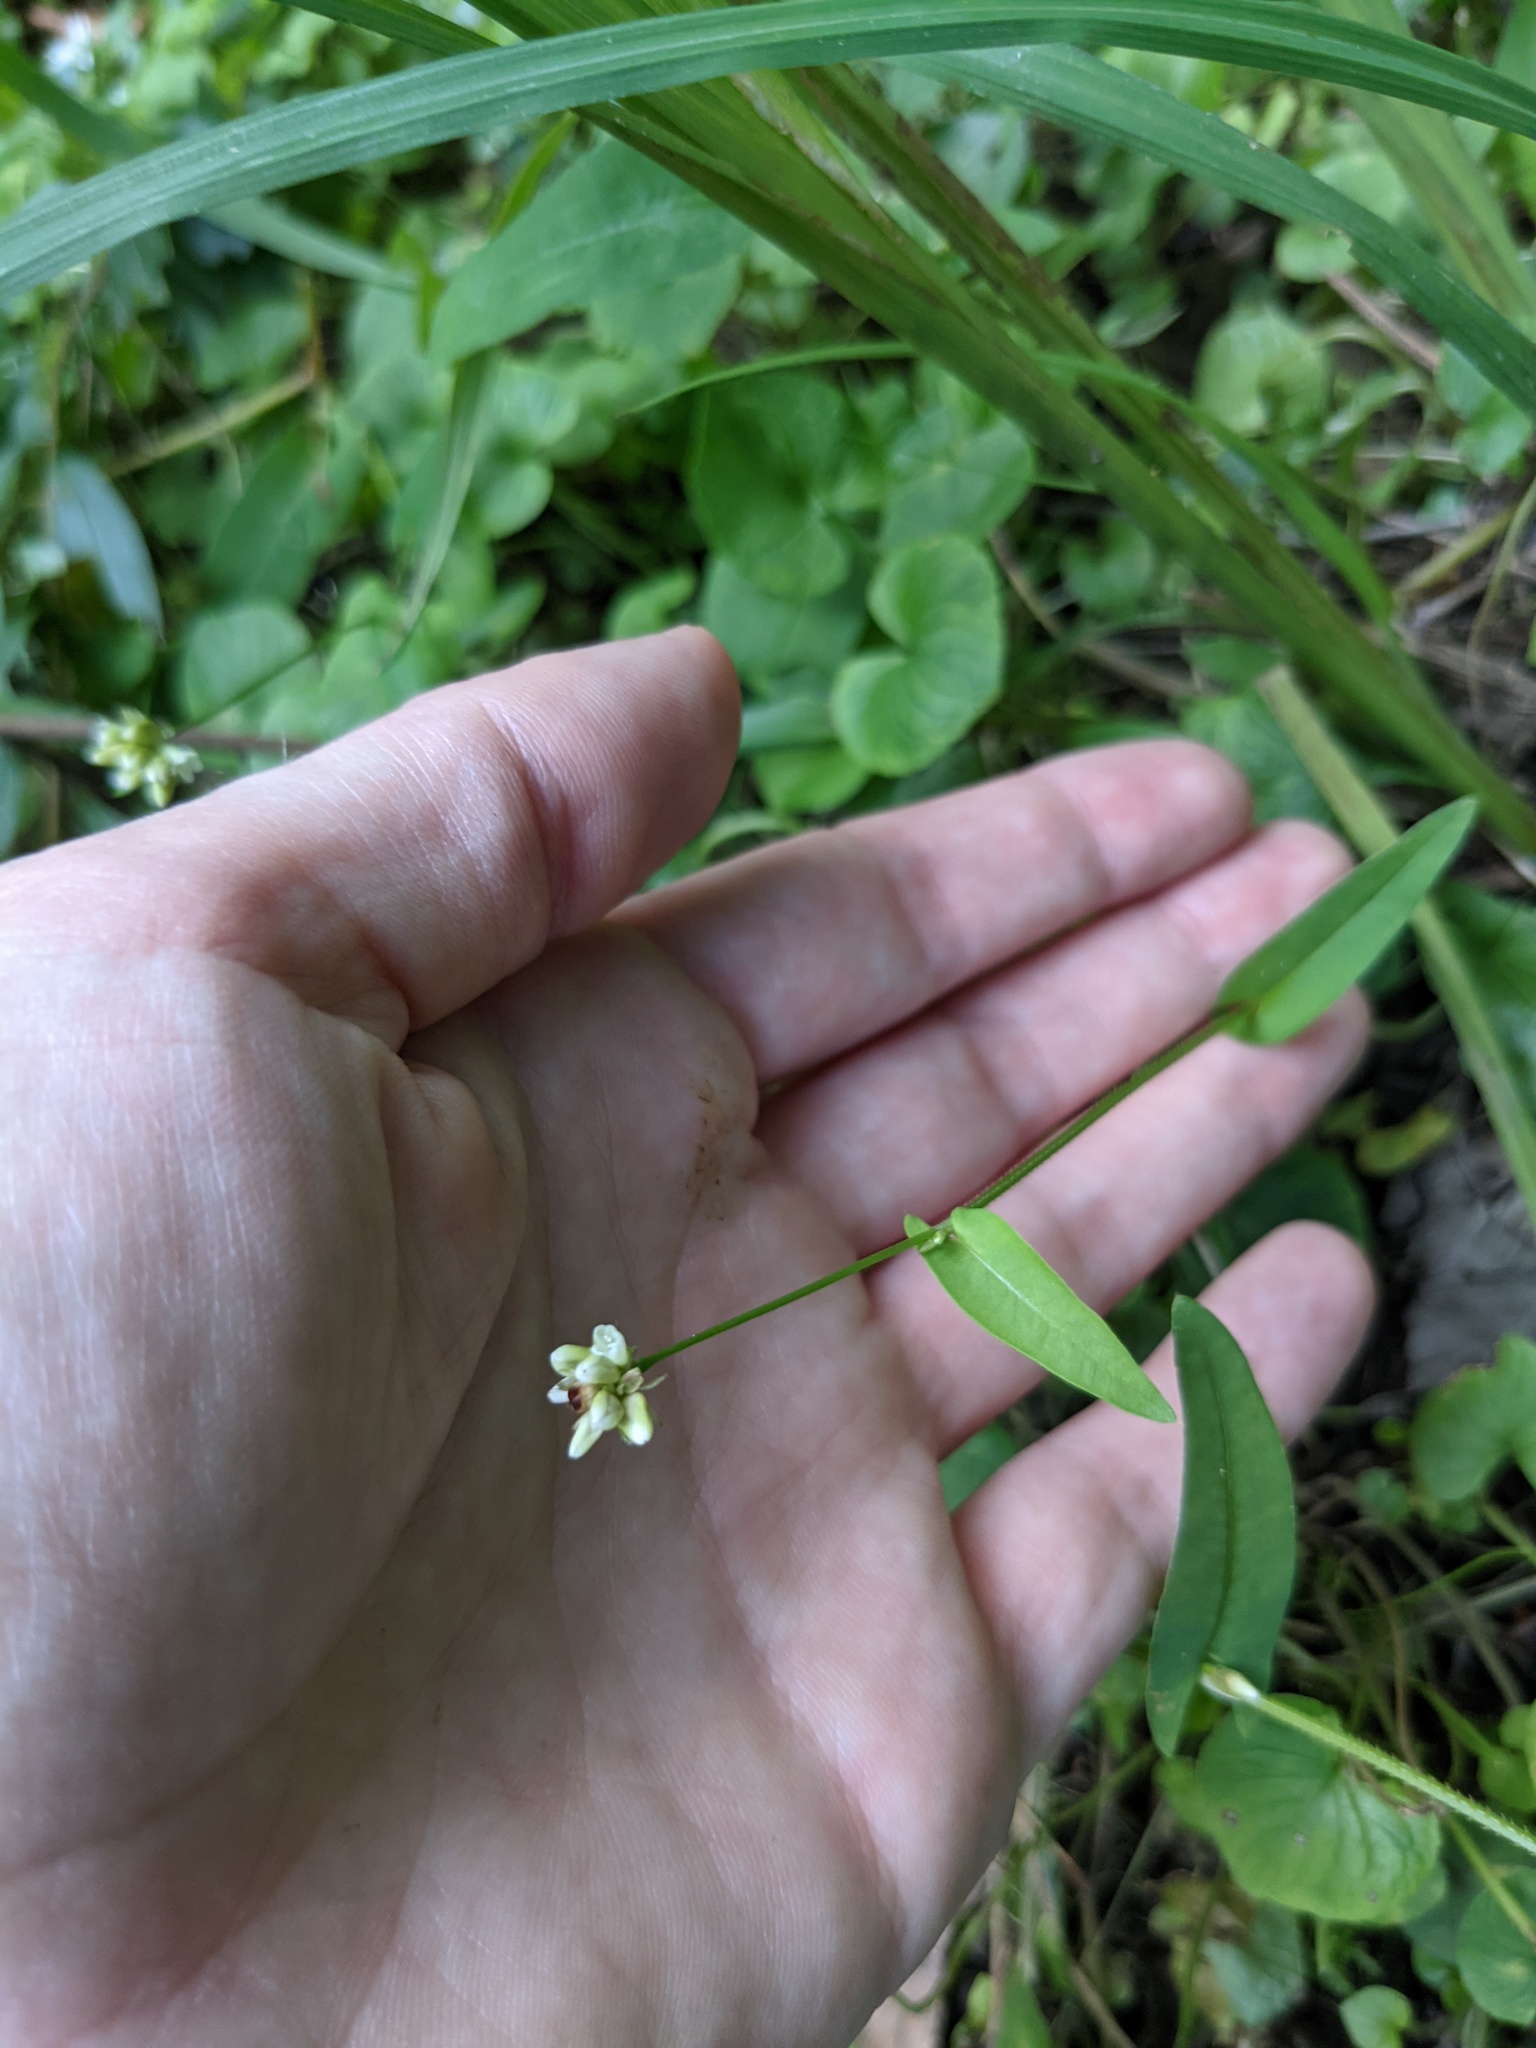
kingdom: Plantae
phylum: Tracheophyta
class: Magnoliopsida
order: Caryophyllales
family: Polygonaceae
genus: Persicaria
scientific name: Persicaria sagittata
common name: American tearthumb
